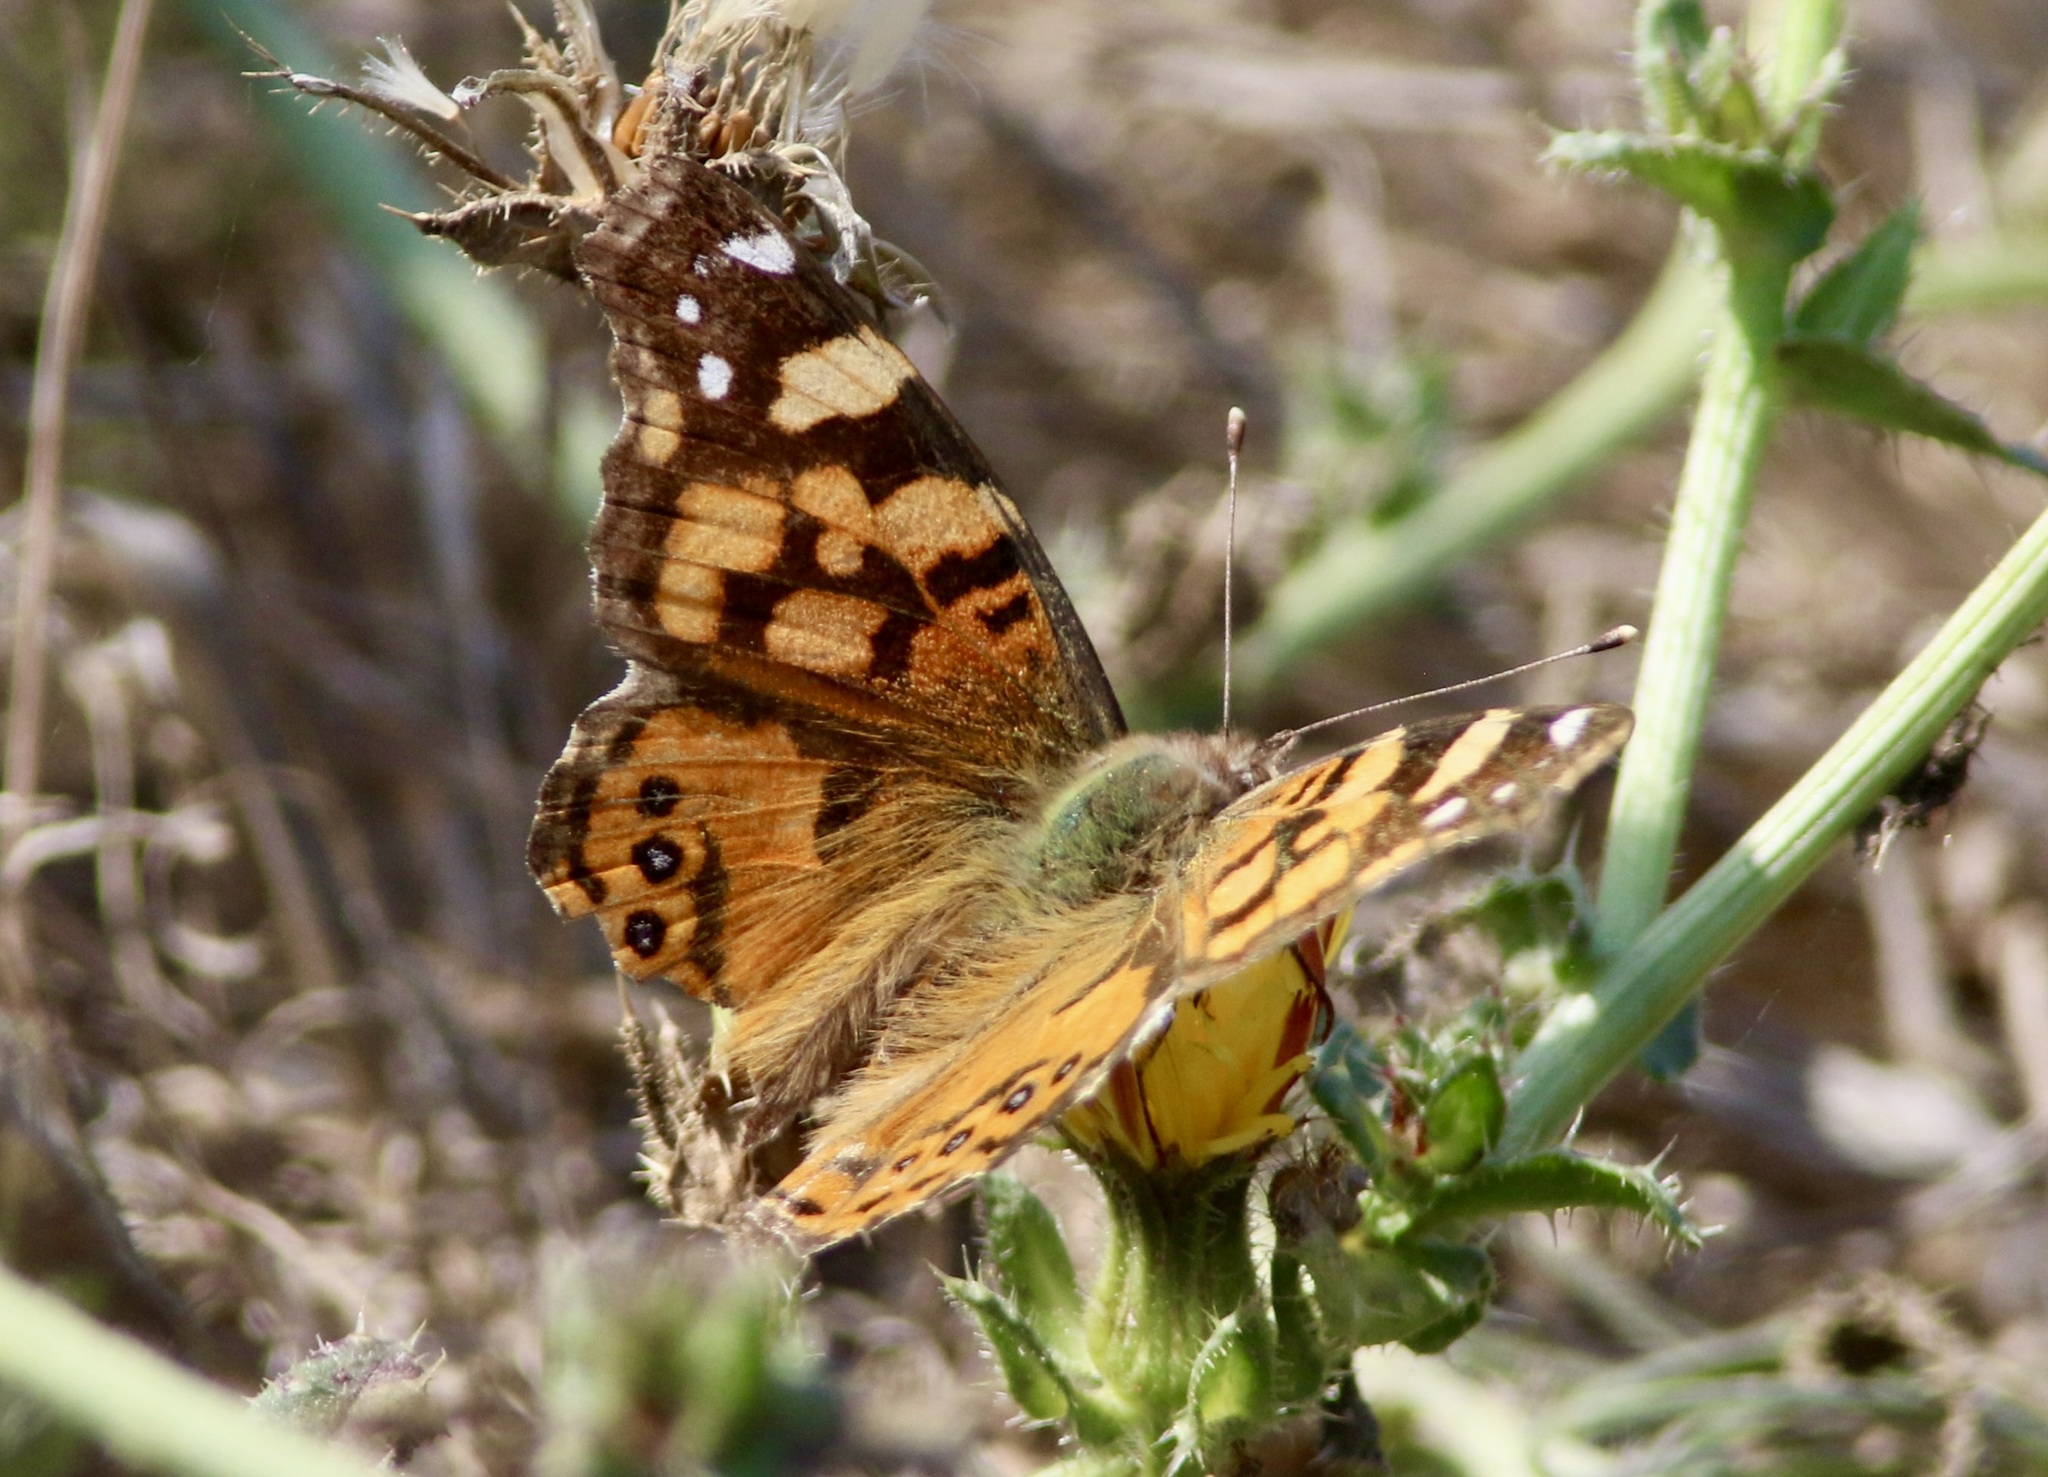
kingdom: Animalia
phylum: Arthropoda
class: Insecta
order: Lepidoptera
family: Nymphalidae
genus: Vanessa
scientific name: Vanessa annabella
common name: West coast lady
